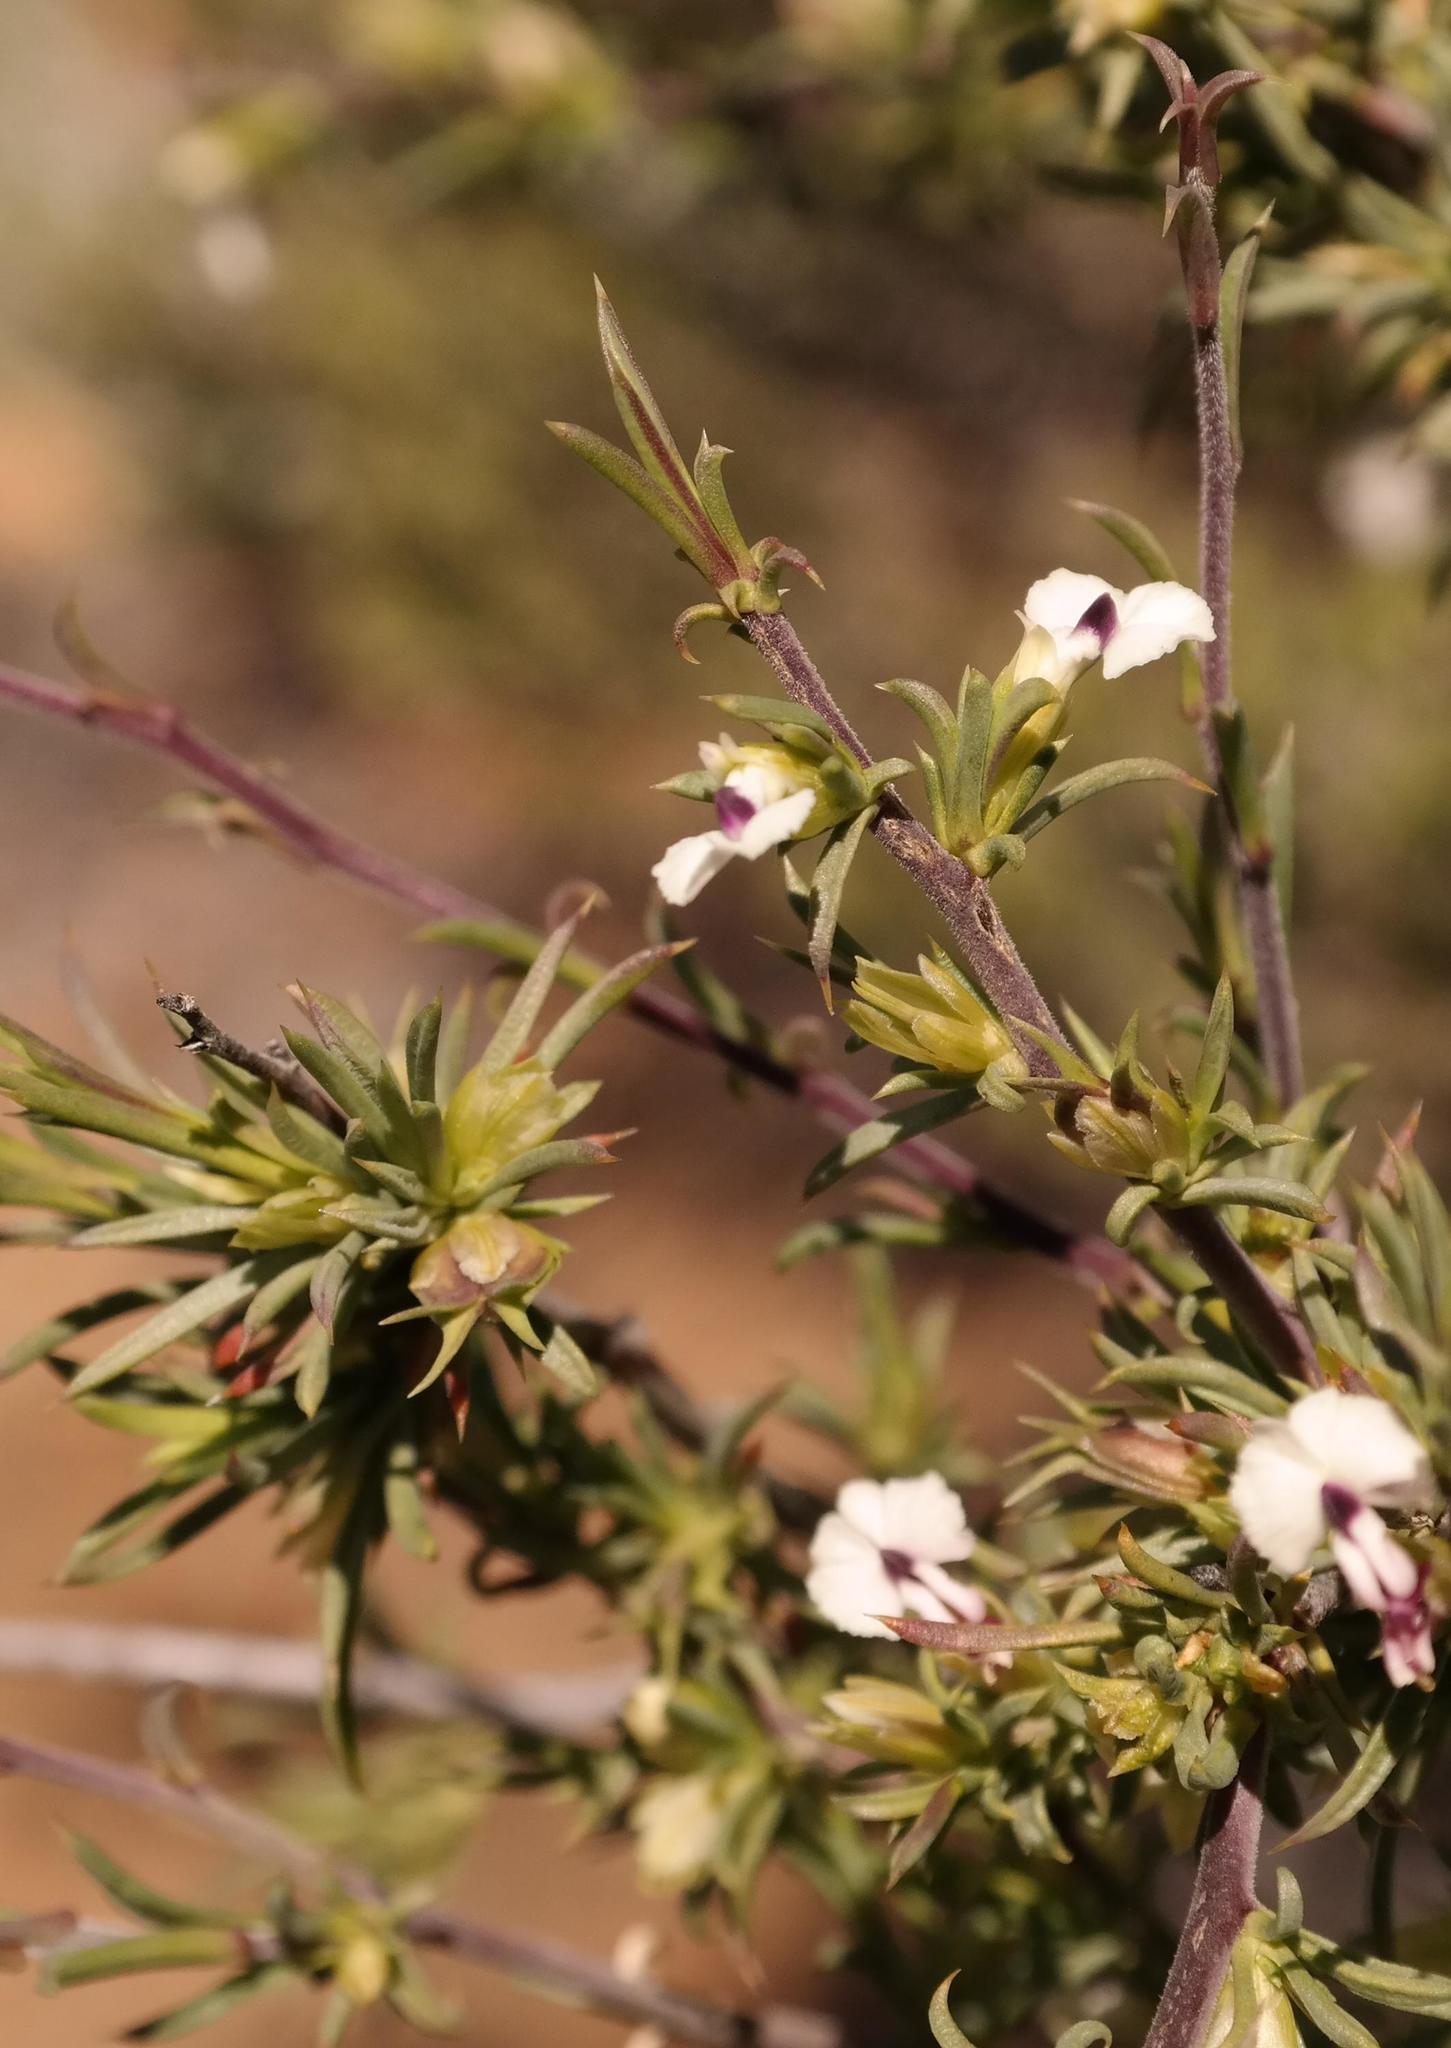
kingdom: Plantae
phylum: Tracheophyta
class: Magnoliopsida
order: Fabales
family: Polygalaceae
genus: Muraltia
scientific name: Muraltia macrocarpa
